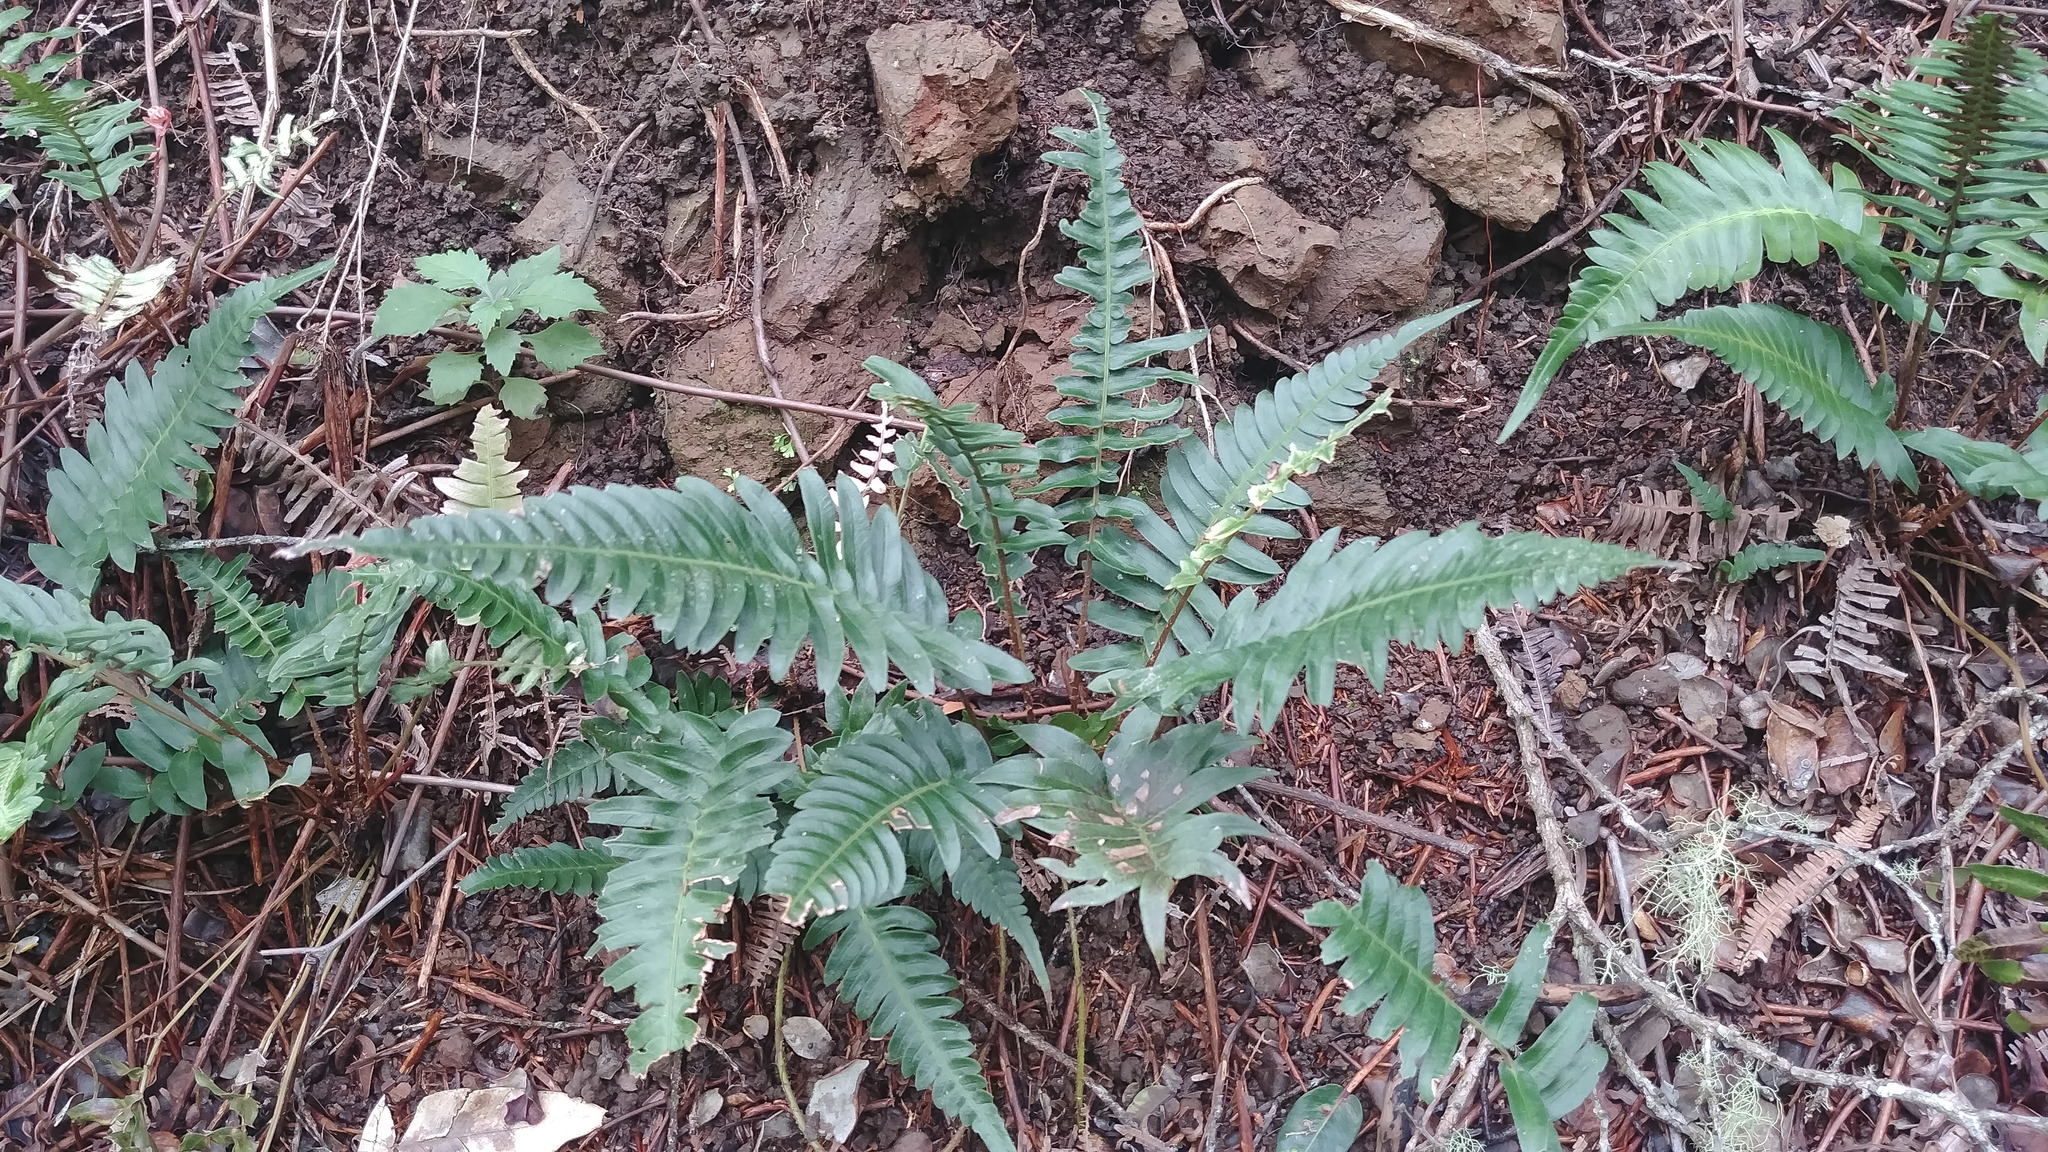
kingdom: Plantae
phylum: Tracheophyta
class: Polypodiopsida
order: Polypodiales
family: Blechnaceae
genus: Blechnum
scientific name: Blechnum appendiculatum
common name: Palm fern
